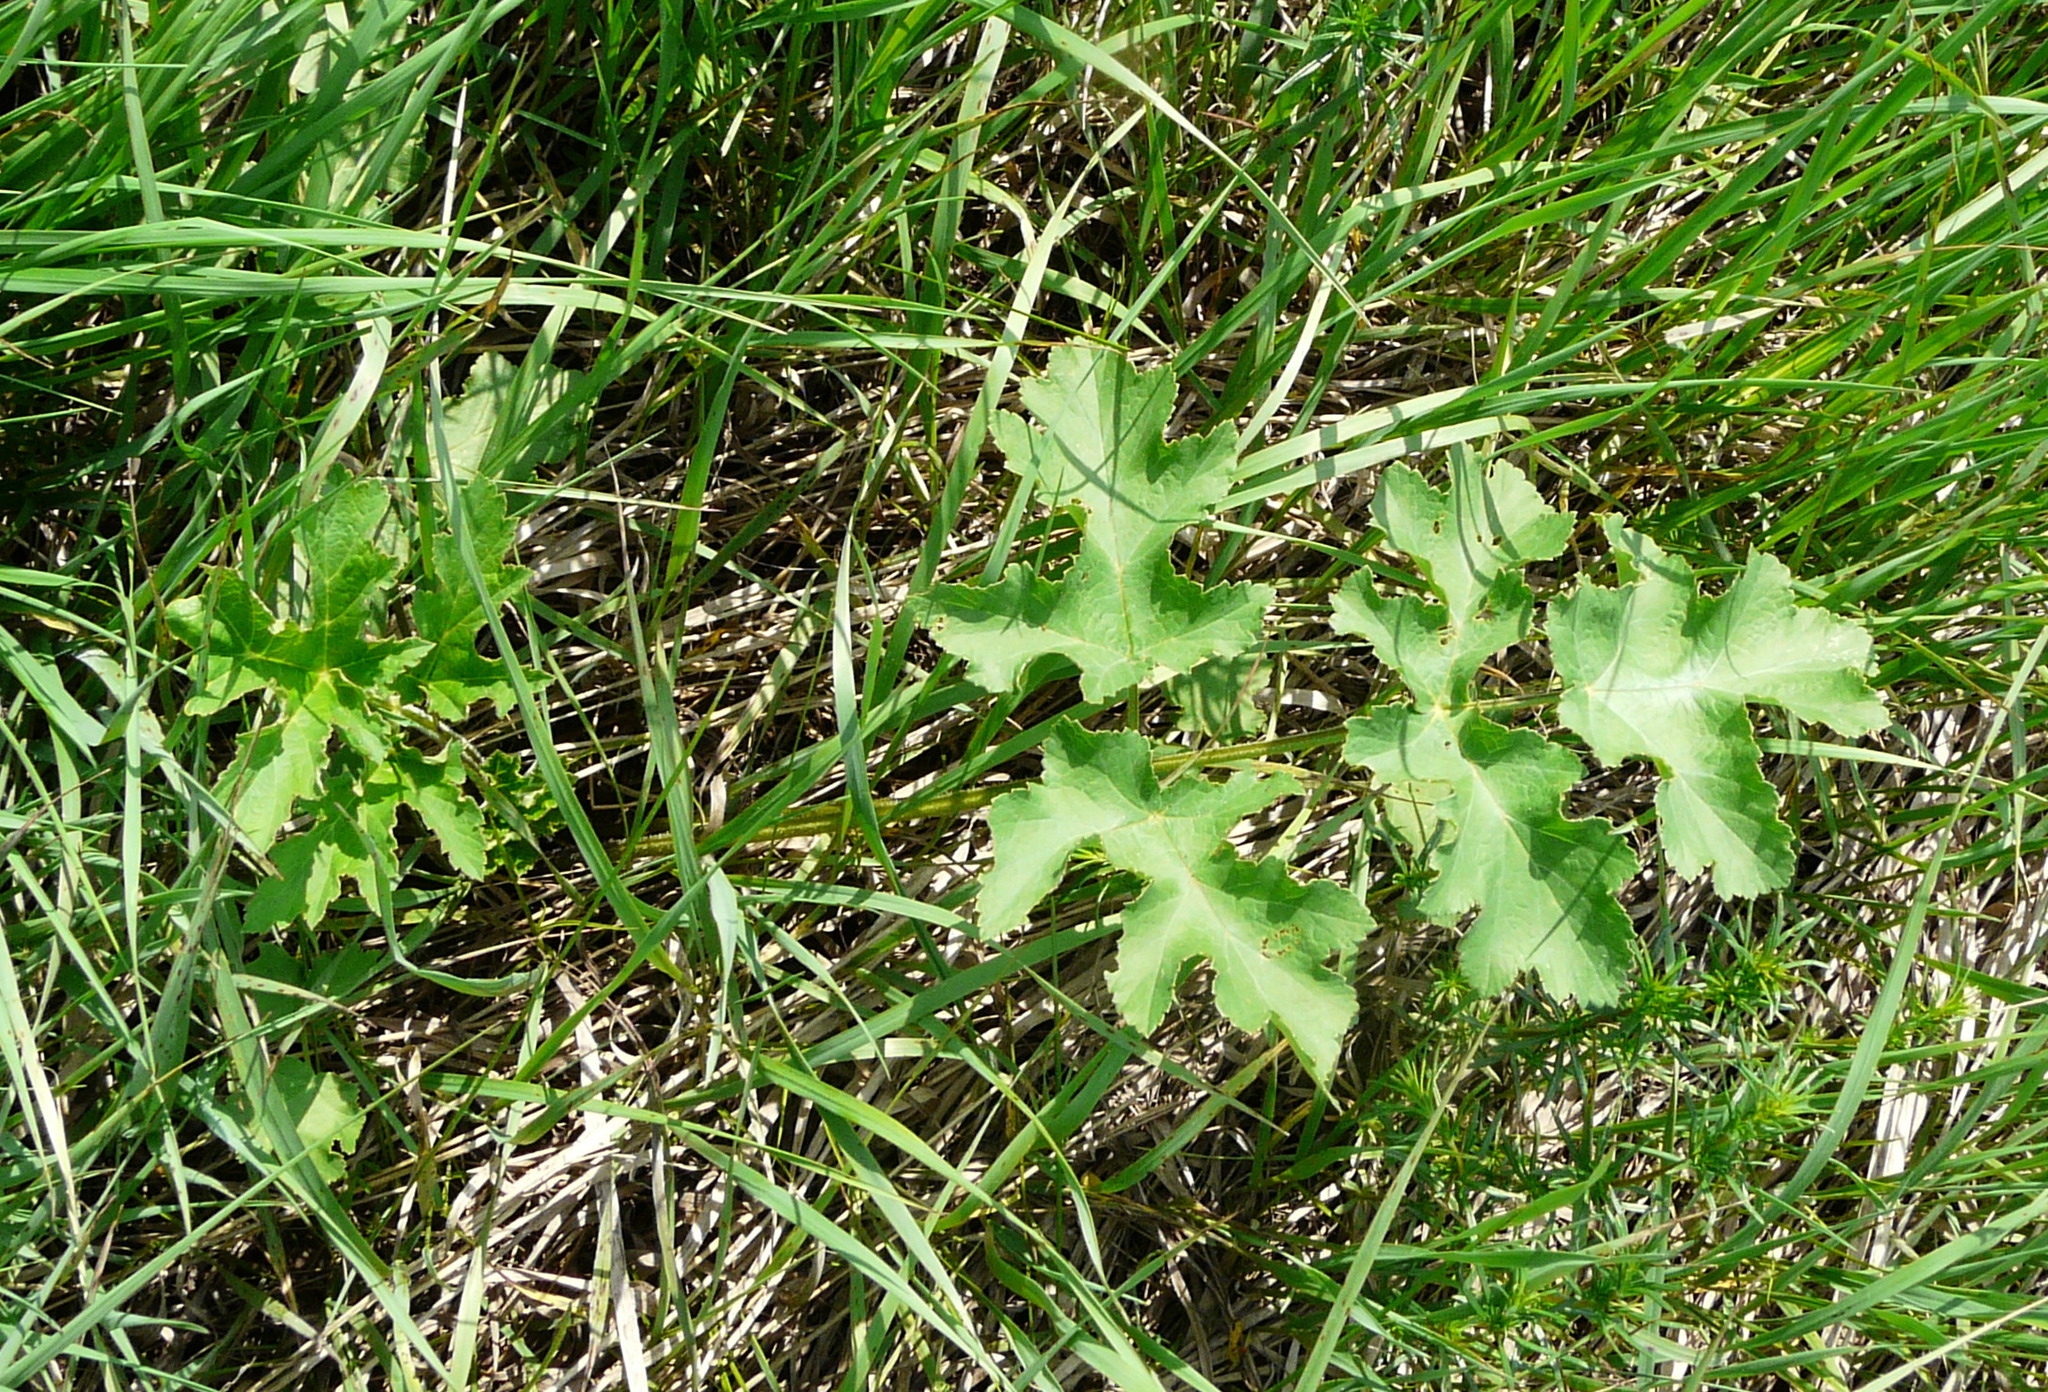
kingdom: Plantae
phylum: Tracheophyta
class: Magnoliopsida
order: Apiales
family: Apiaceae
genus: Heracleum
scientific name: Heracleum sphondylium
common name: Hogweed
